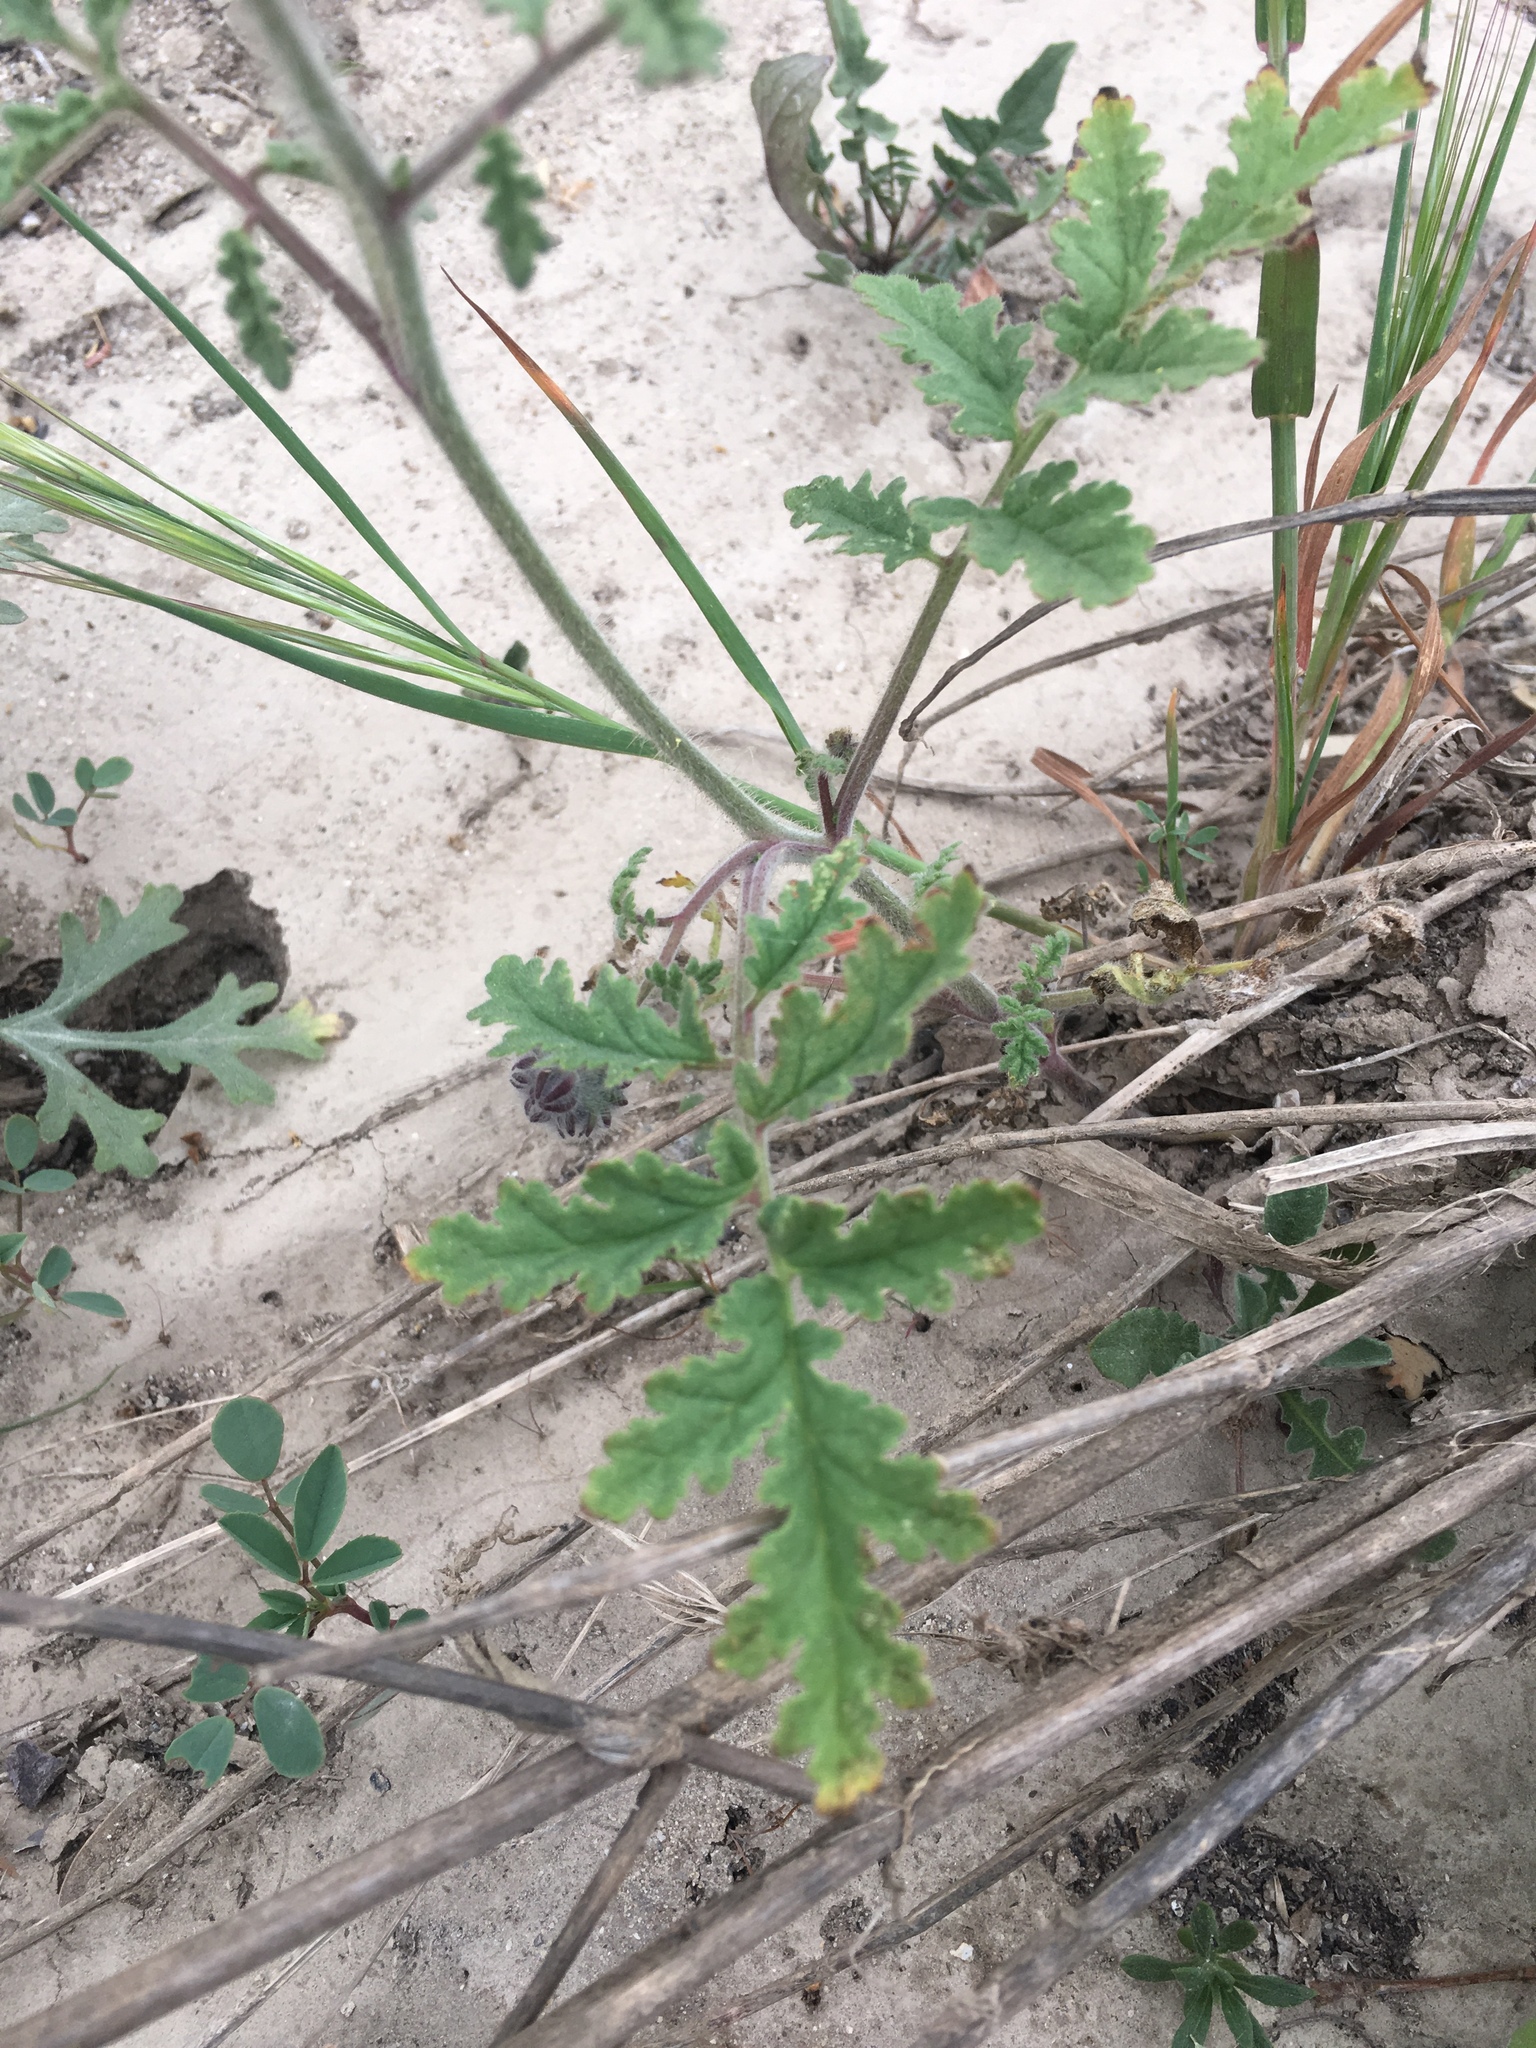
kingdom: Plantae
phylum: Tracheophyta
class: Magnoliopsida
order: Boraginales
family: Hydrophyllaceae
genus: Phacelia
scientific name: Phacelia hubbyi
